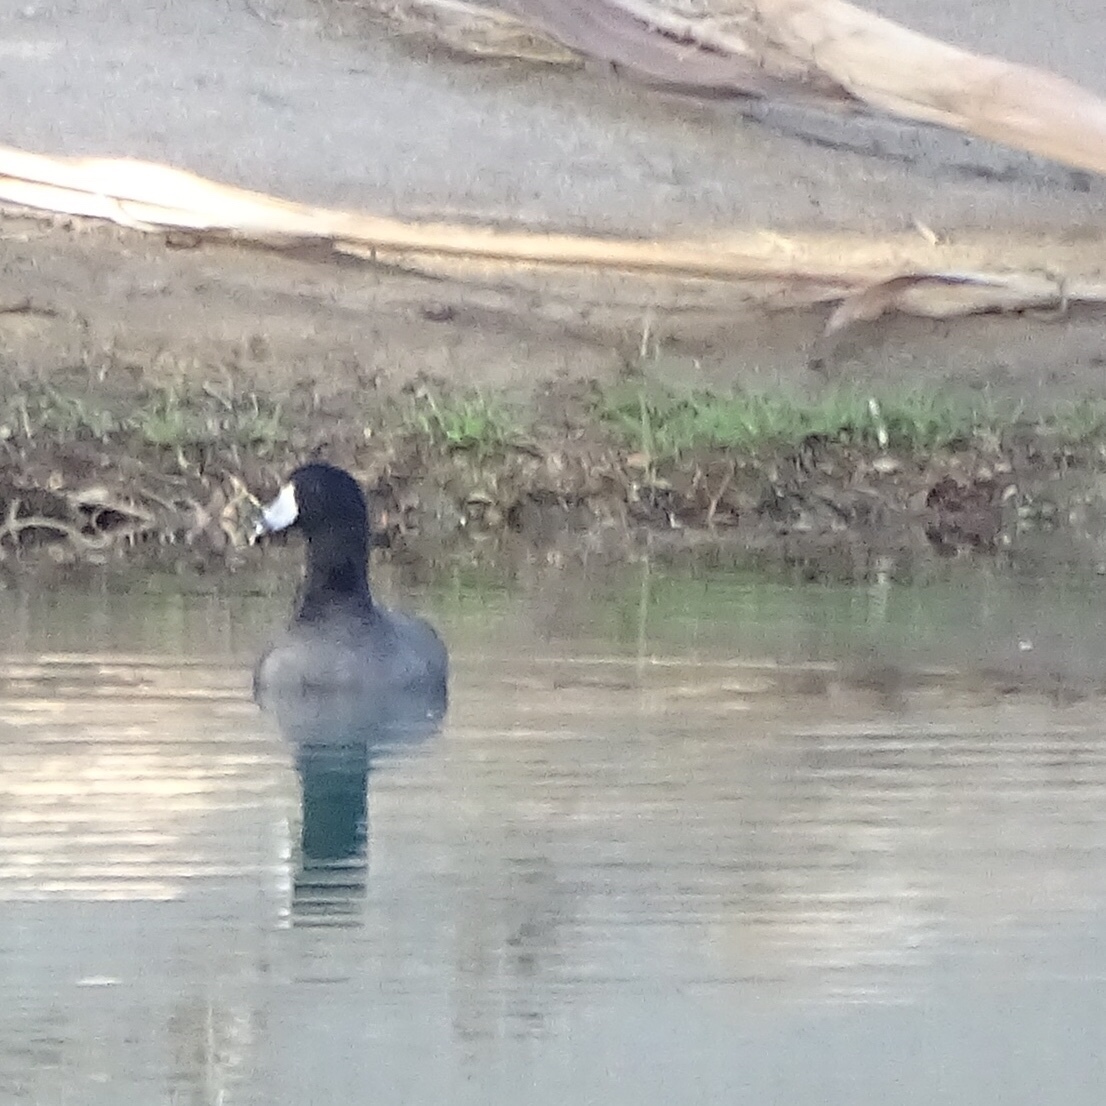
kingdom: Animalia
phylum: Chordata
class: Aves
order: Gruiformes
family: Rallidae
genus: Fulica
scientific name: Fulica americana
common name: American coot
